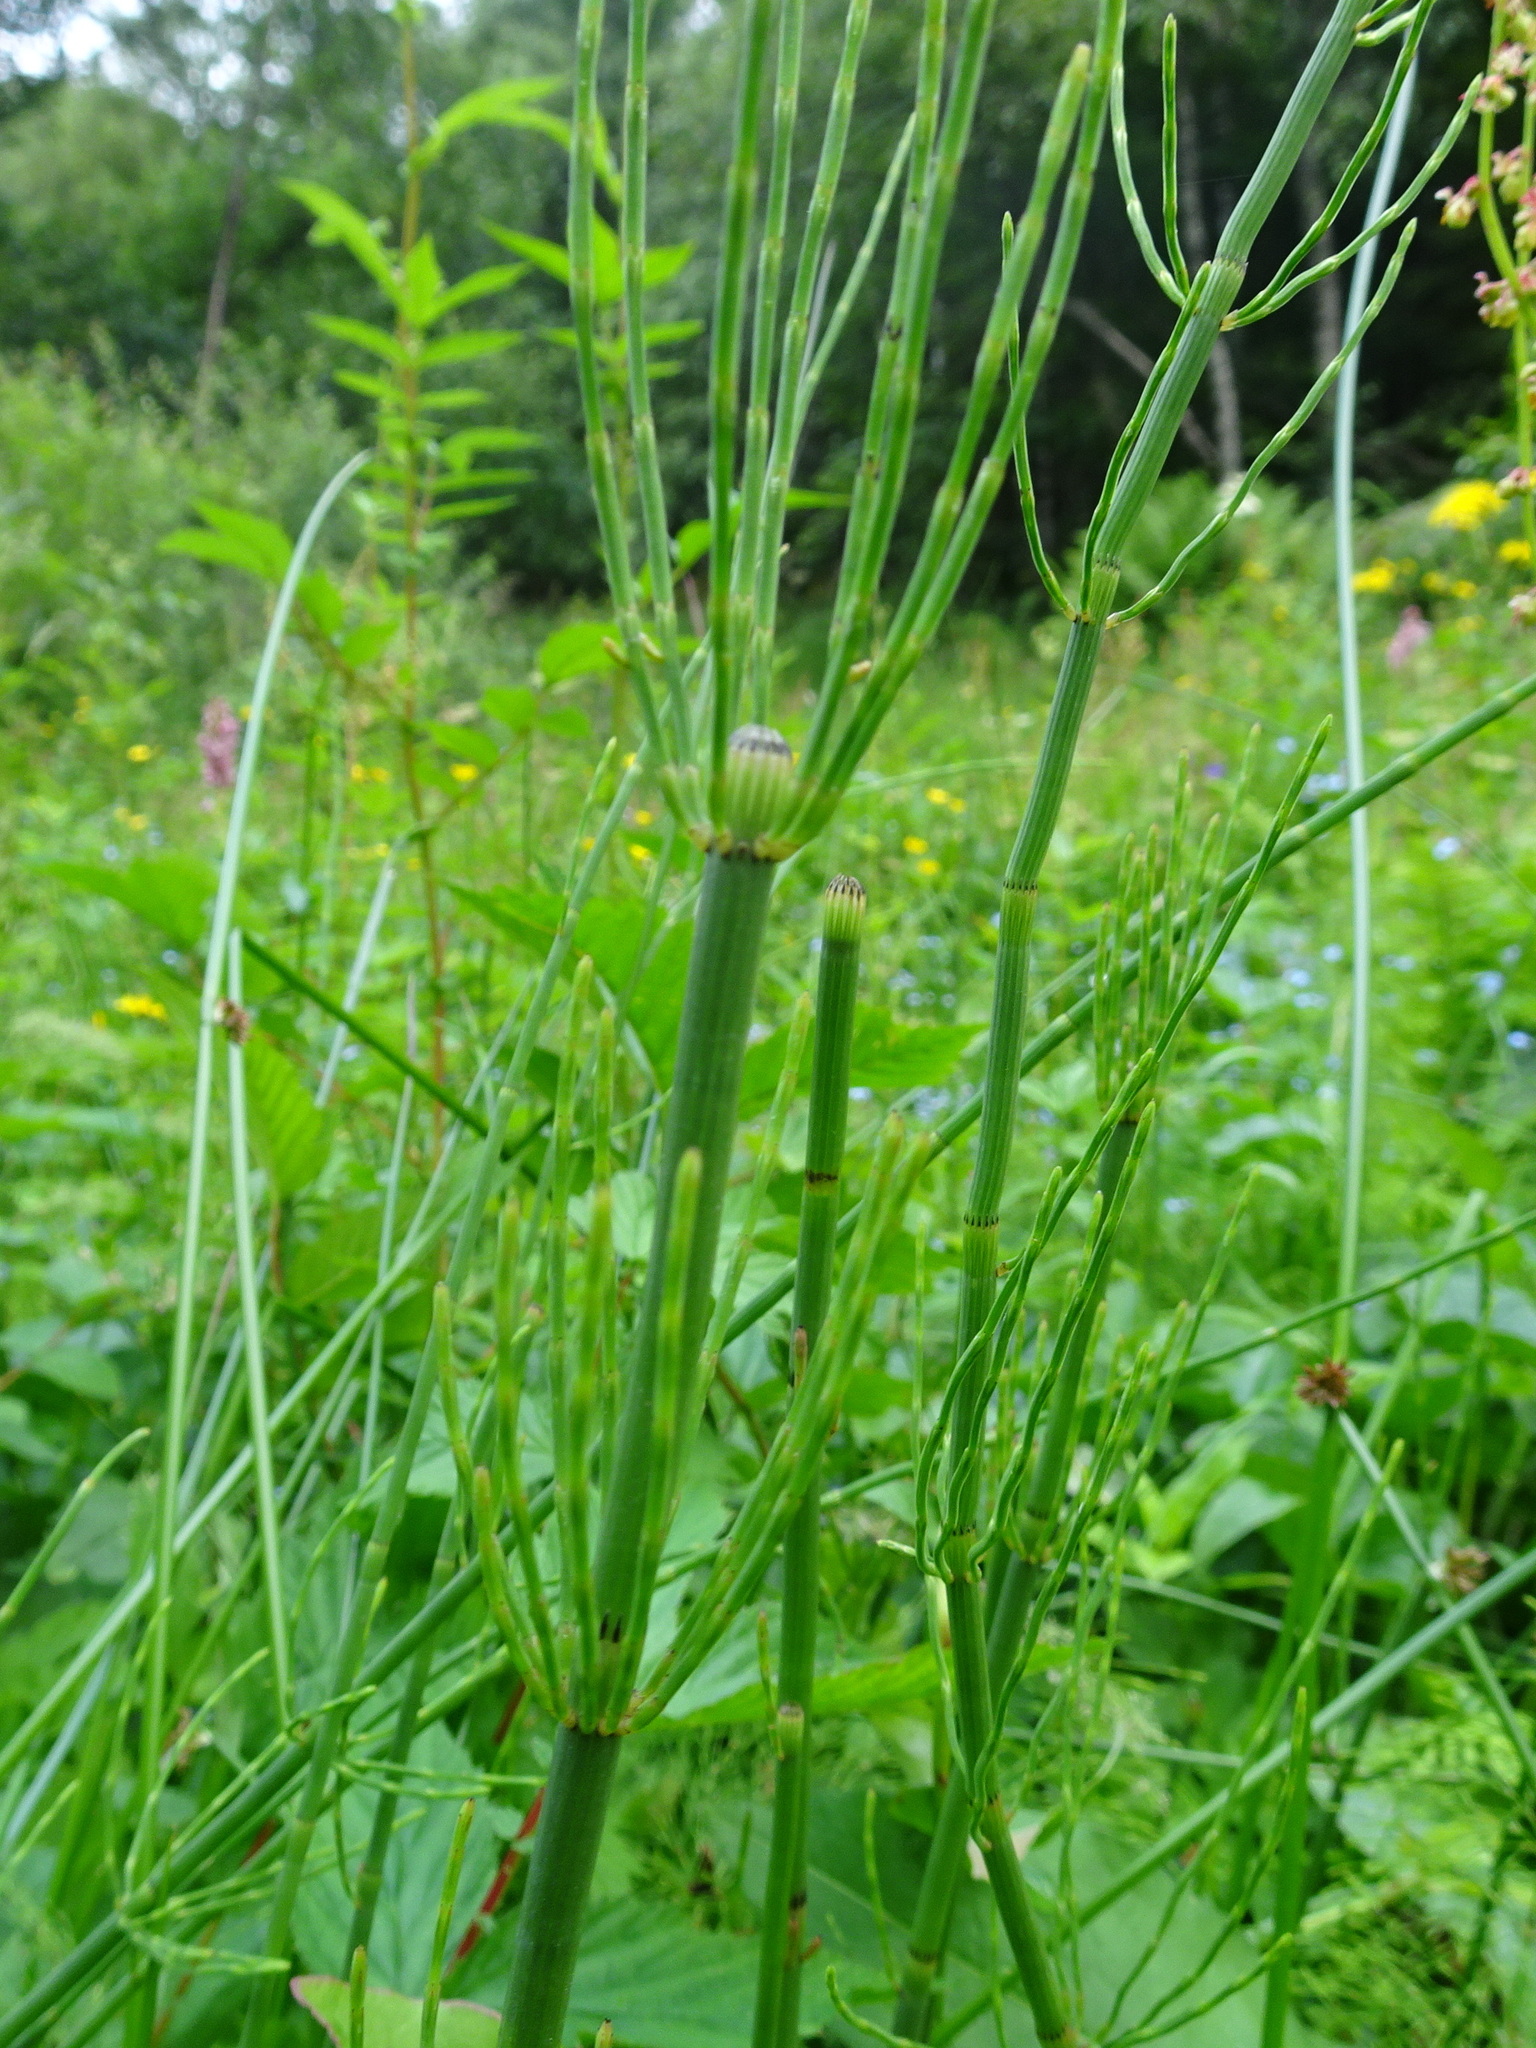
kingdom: Plantae
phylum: Tracheophyta
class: Polypodiopsida
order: Equisetales
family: Equisetaceae
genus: Equisetum
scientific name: Equisetum sylvaticum
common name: Wood horsetail
